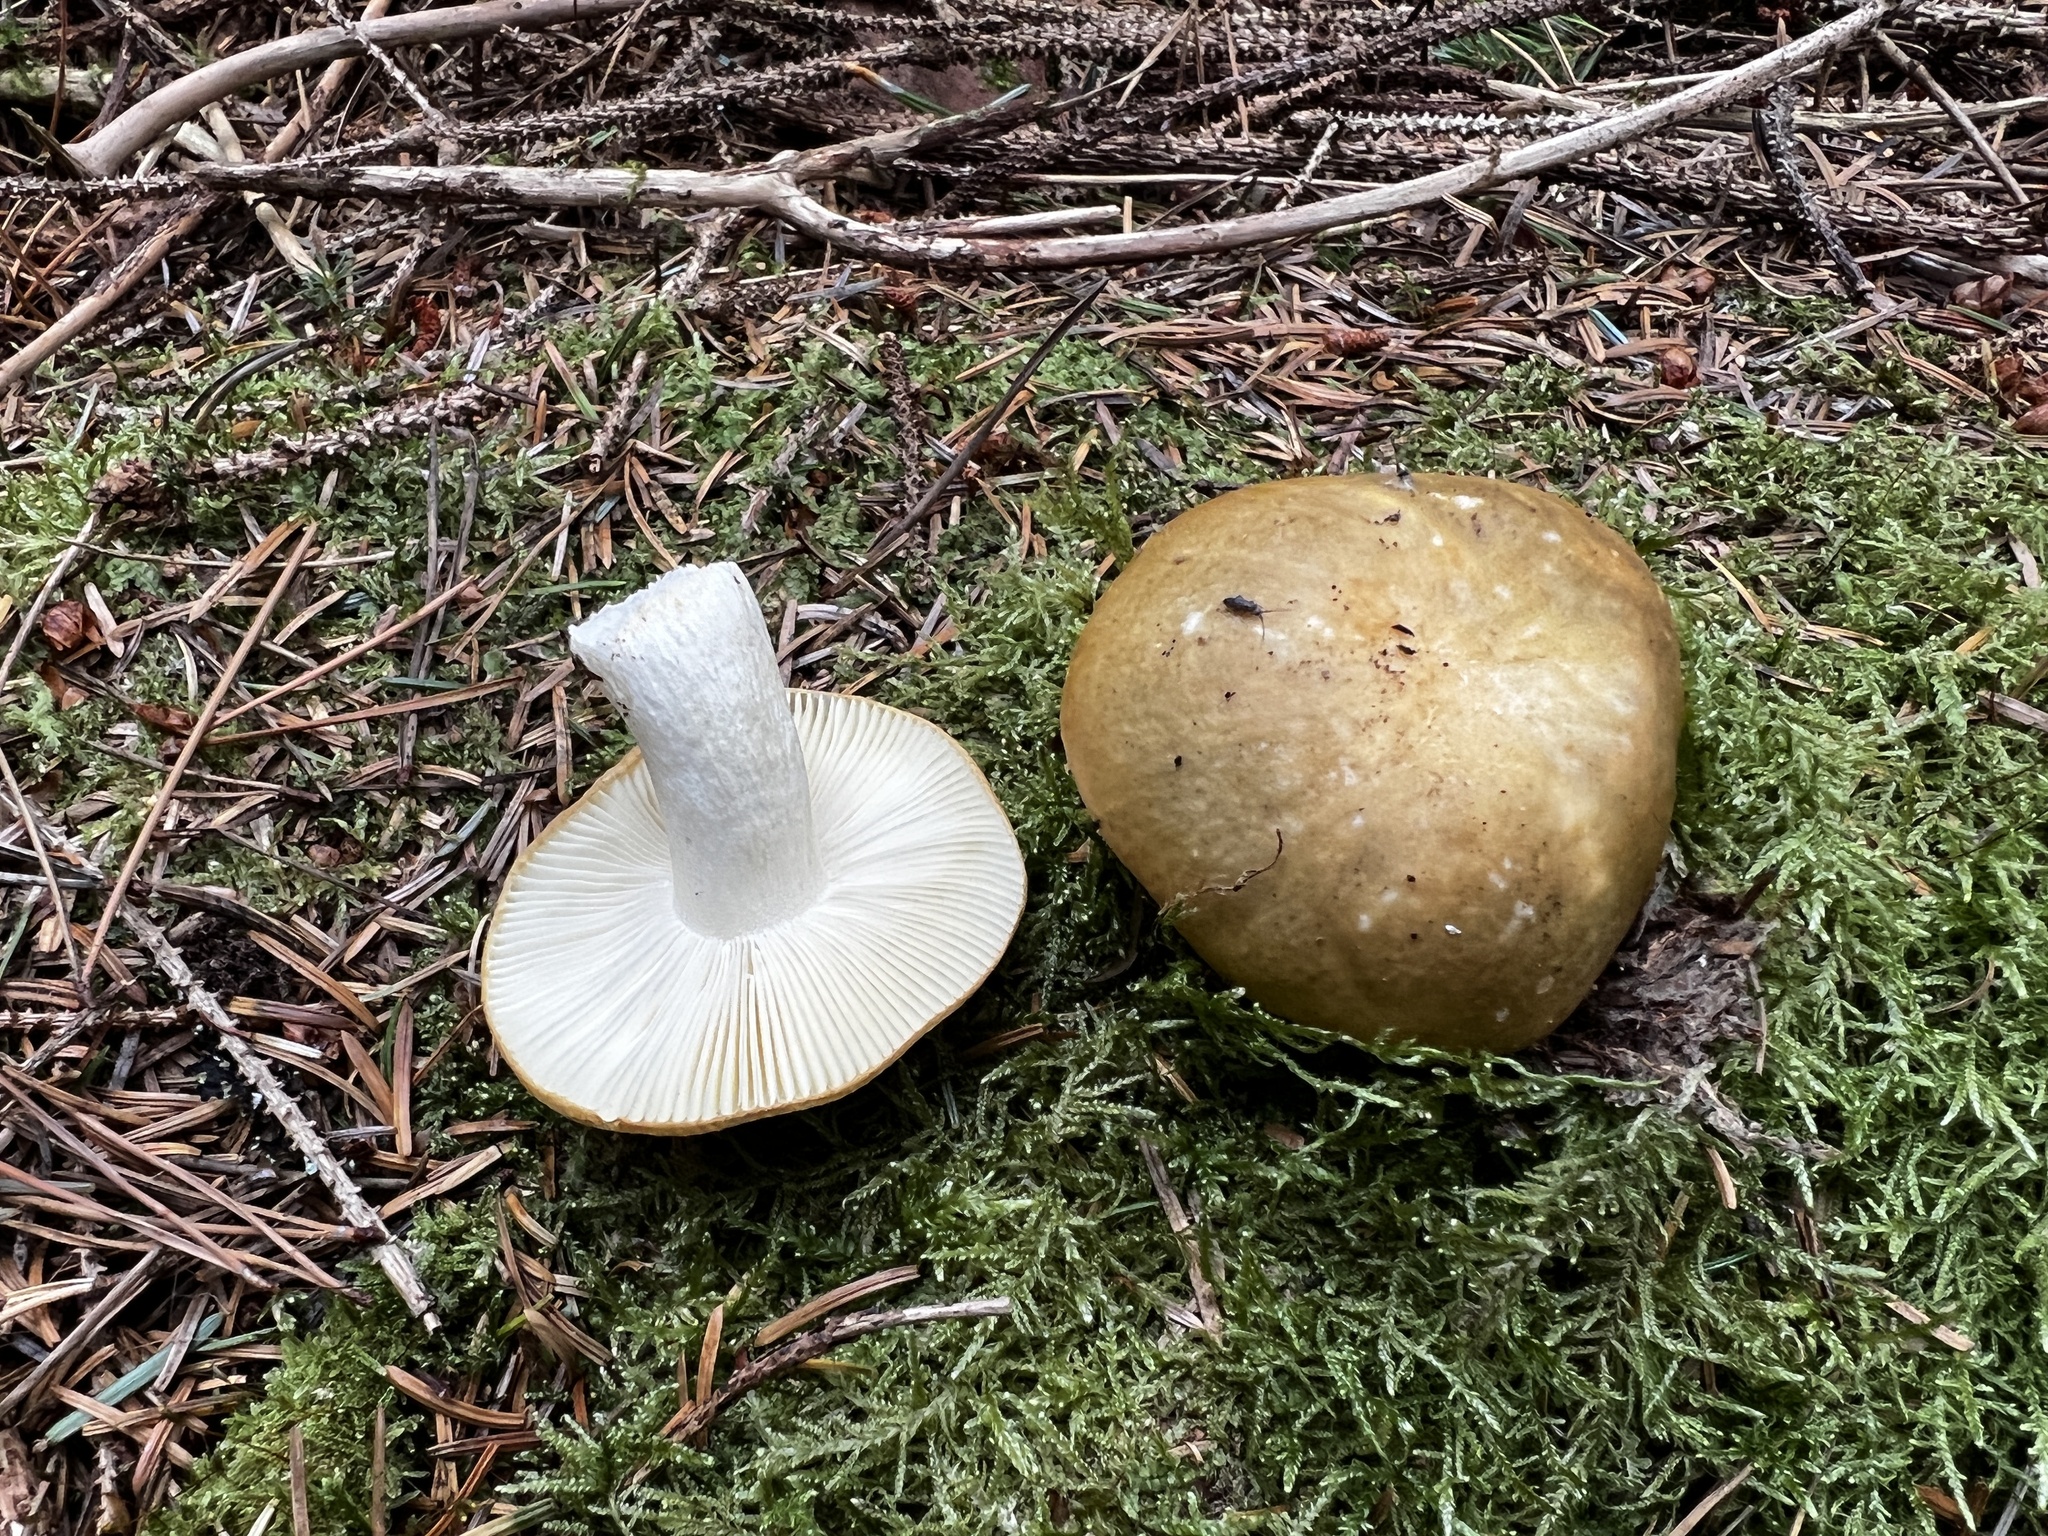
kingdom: Fungi
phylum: Basidiomycota
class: Agaricomycetes
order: Russulales
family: Russulaceae
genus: Russula
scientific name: Russula ochroleuca
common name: Common yellow russula
